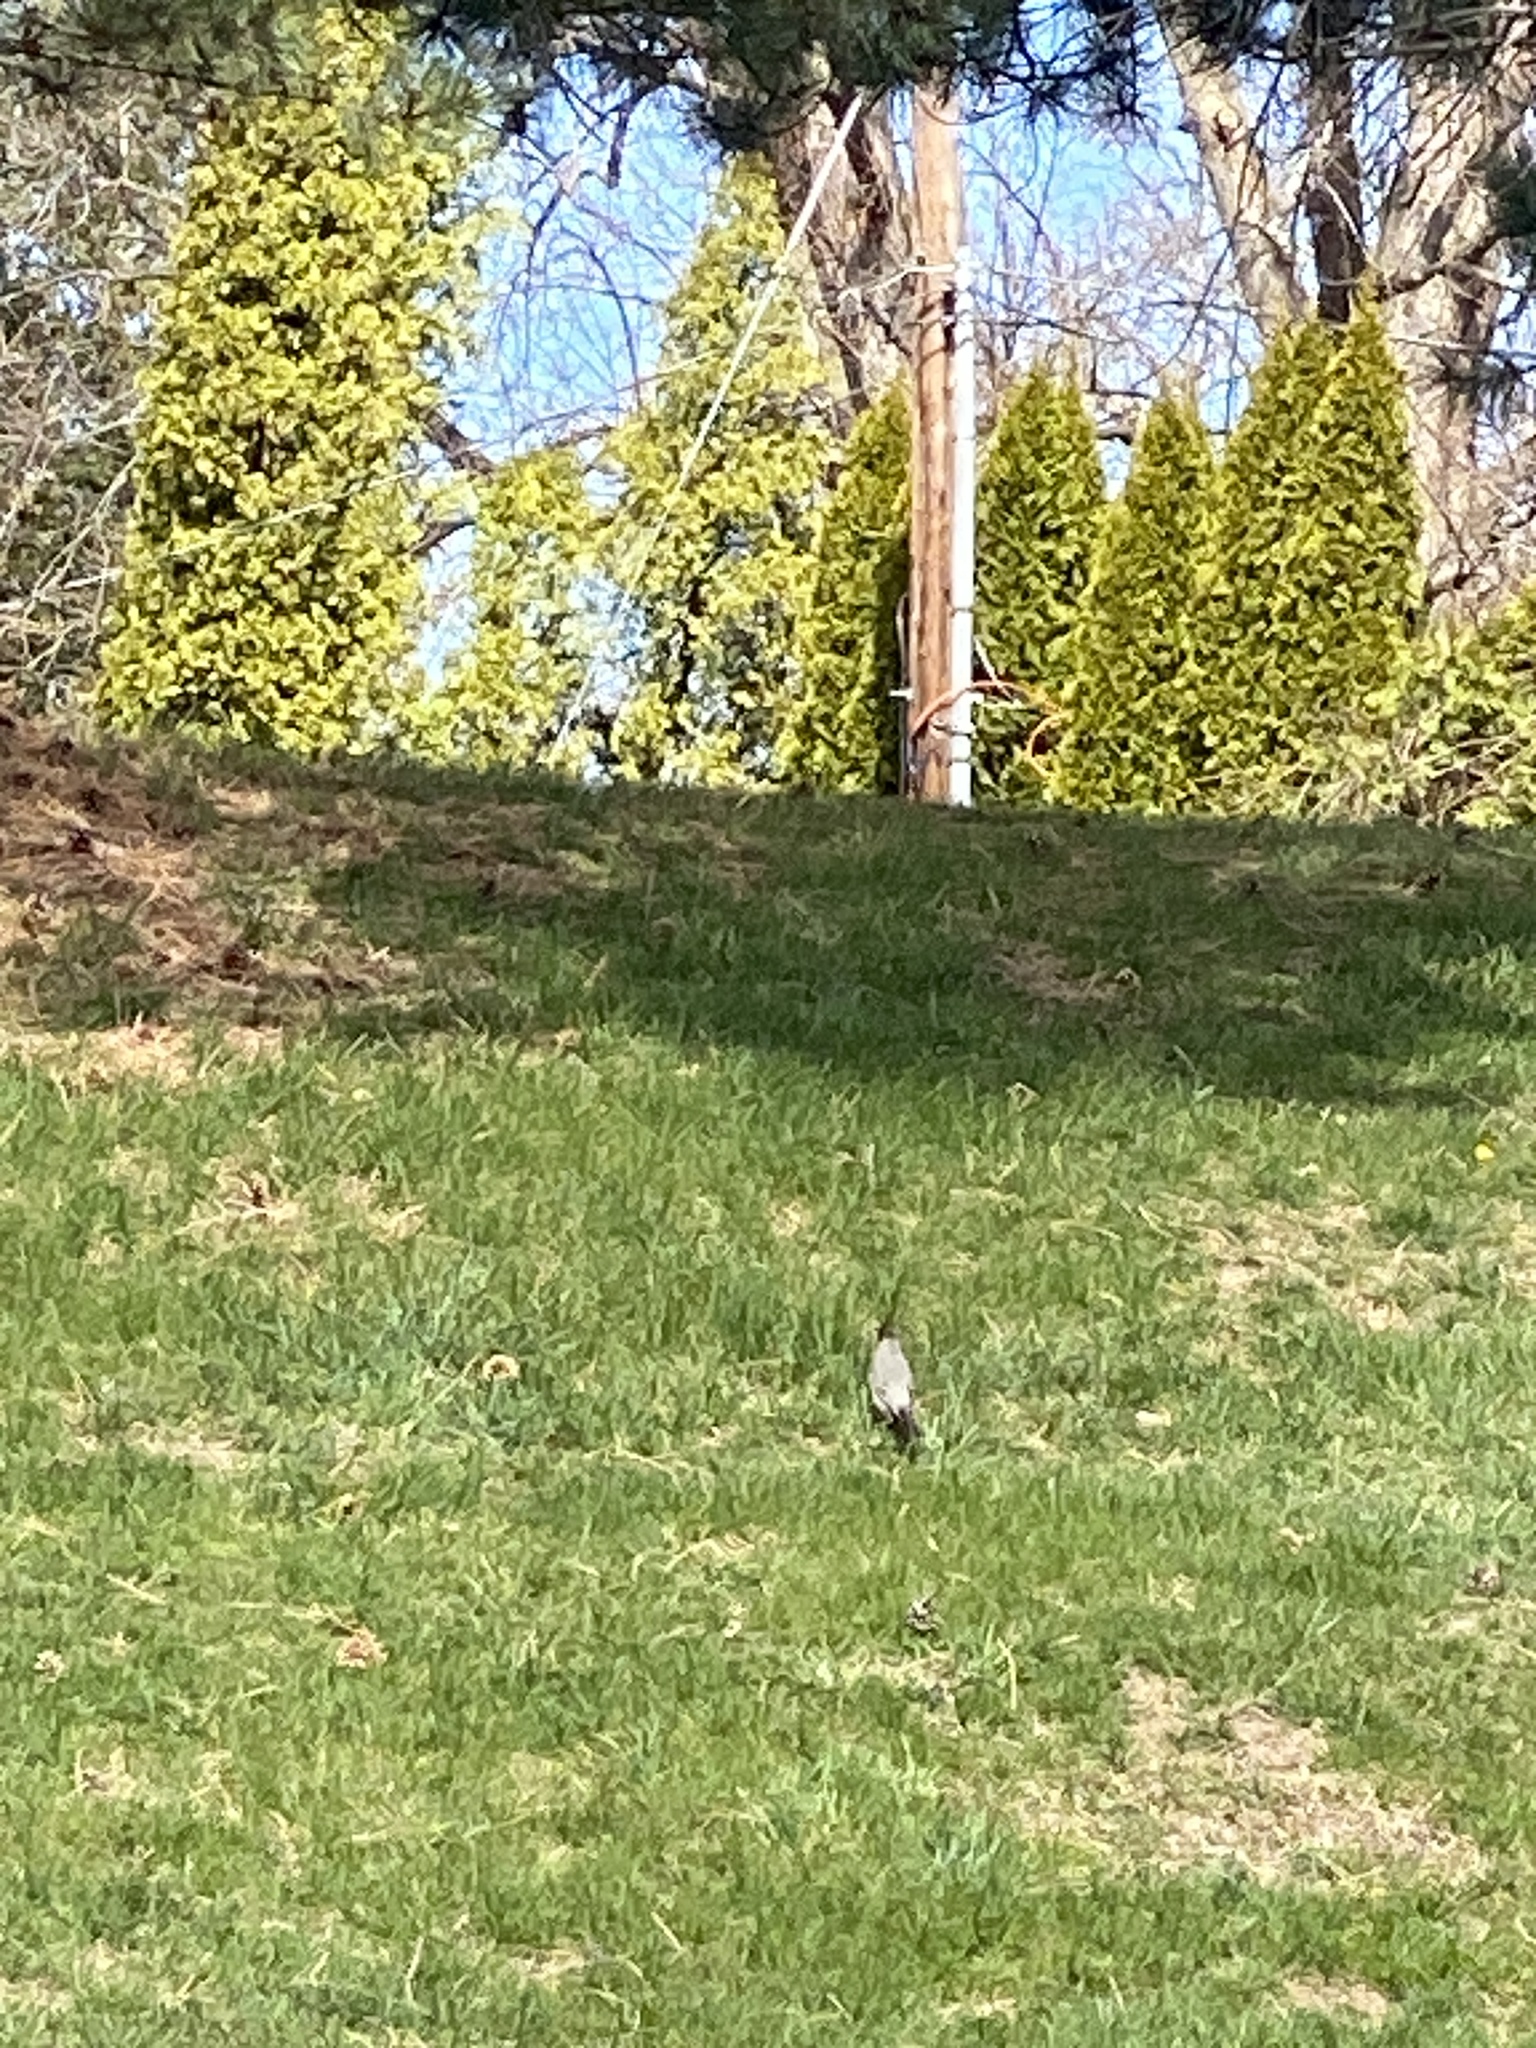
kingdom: Animalia
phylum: Chordata
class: Aves
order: Passeriformes
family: Turdidae
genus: Turdus
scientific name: Turdus migratorius
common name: American robin
